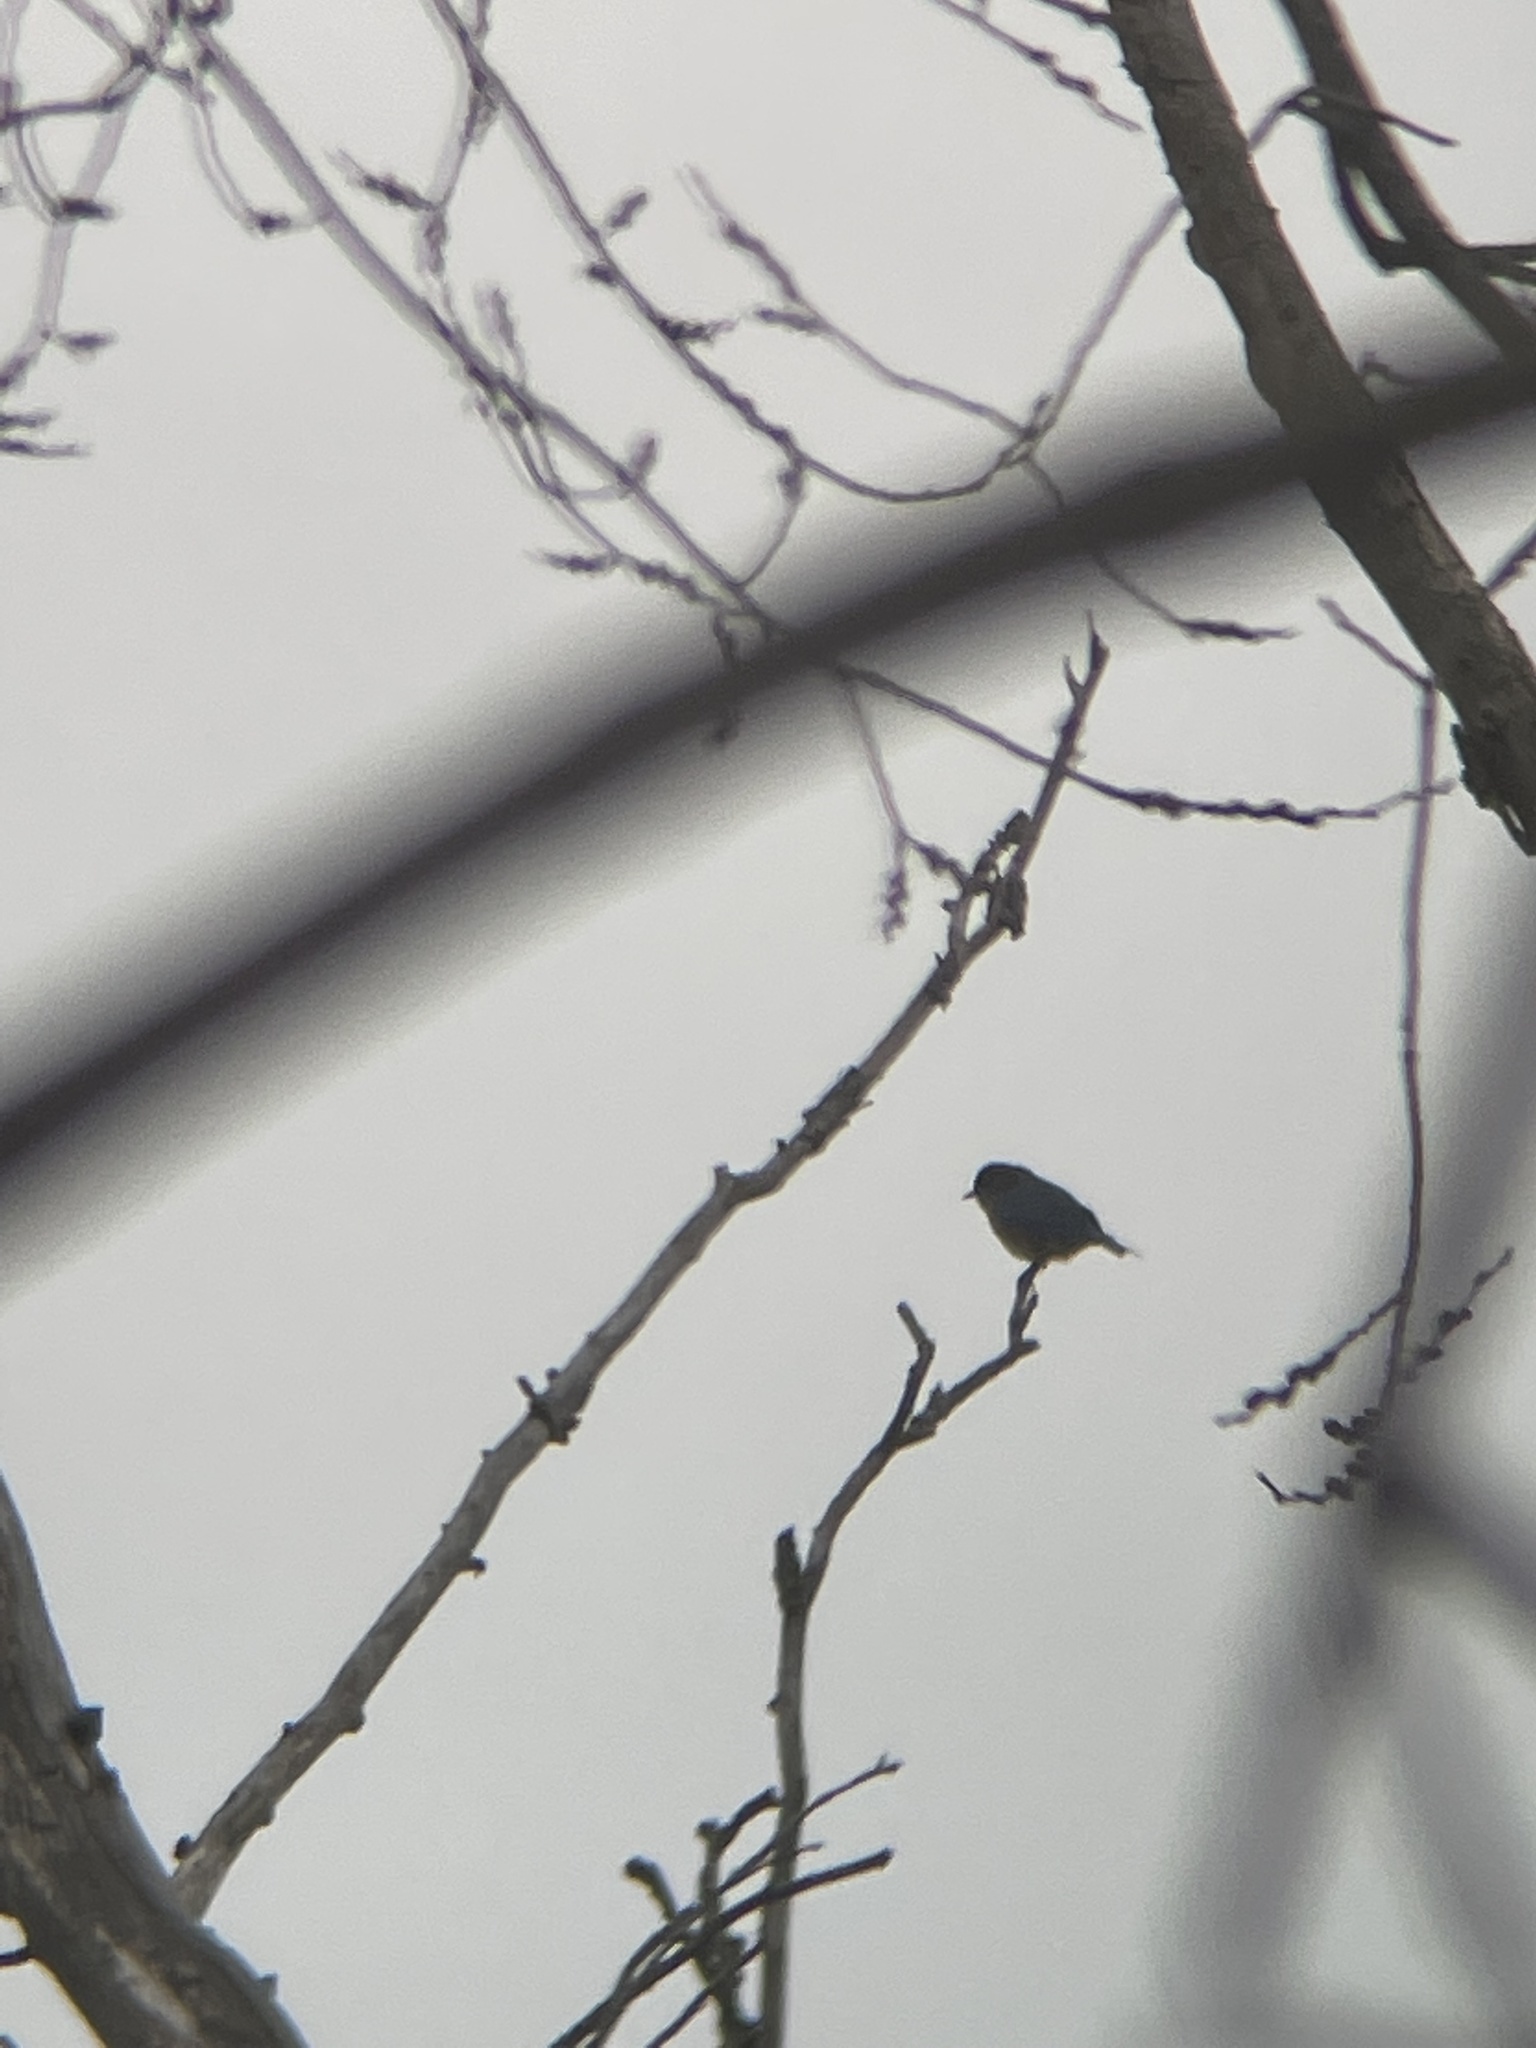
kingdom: Animalia
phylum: Chordata
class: Aves
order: Passeriformes
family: Turdidae
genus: Sialia
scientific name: Sialia sialis
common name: Eastern bluebird
